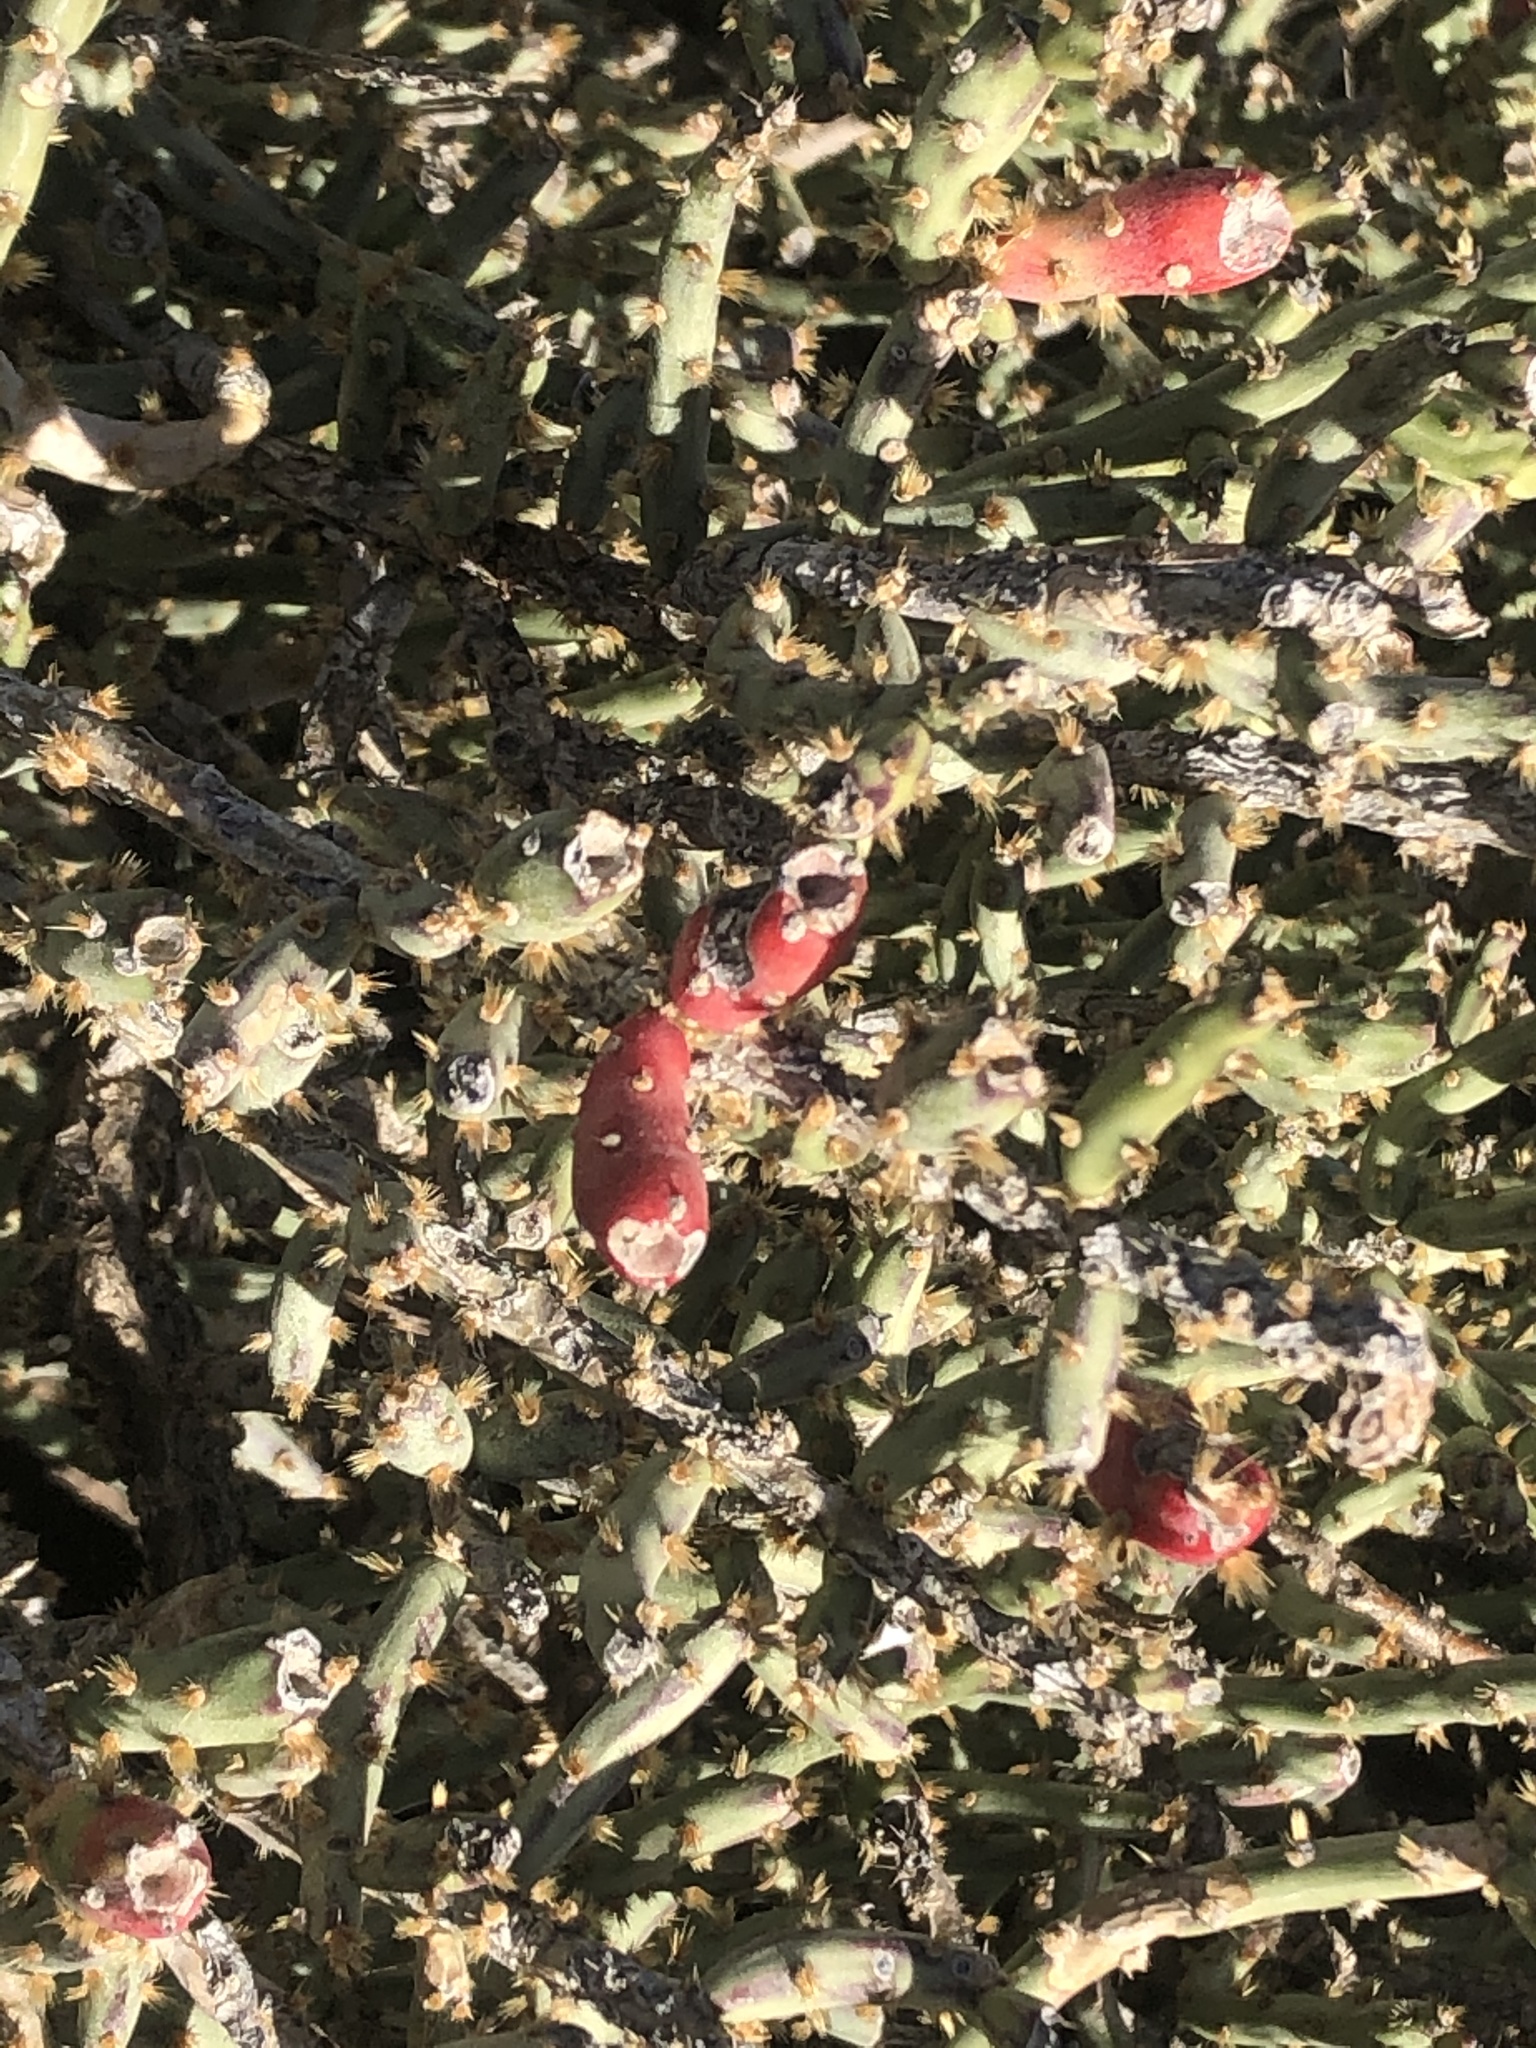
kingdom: Plantae
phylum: Tracheophyta
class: Magnoliopsida
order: Caryophyllales
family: Cactaceae
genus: Cylindropuntia
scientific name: Cylindropuntia leptocaulis
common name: Christmas cactus
